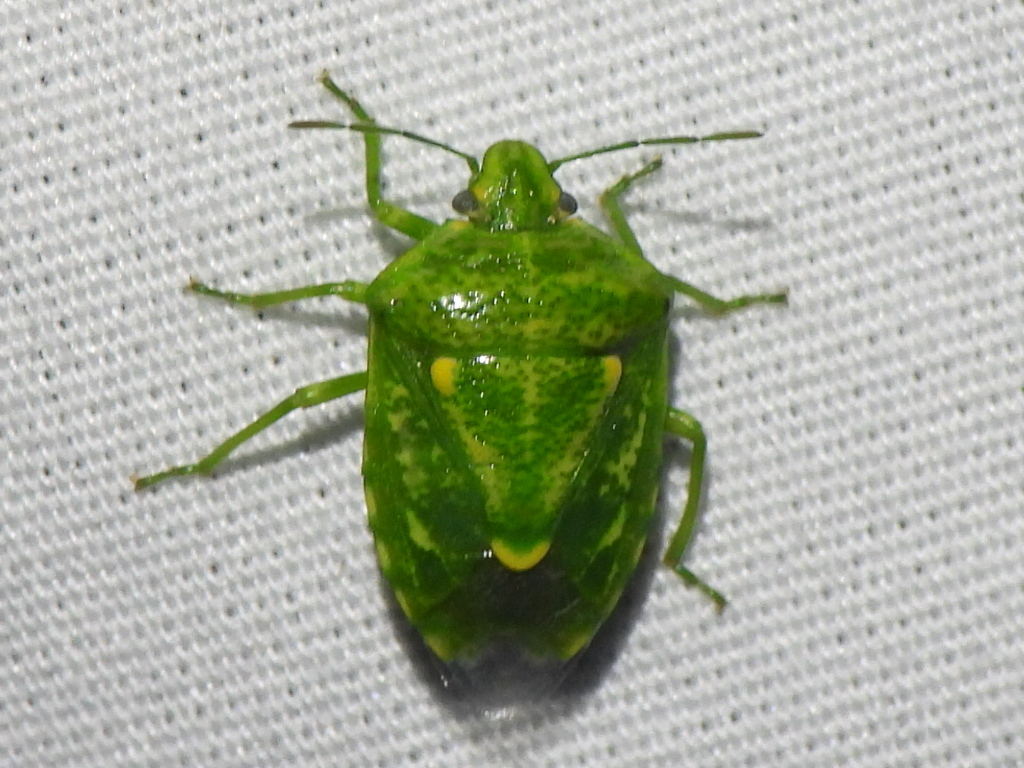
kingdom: Animalia
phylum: Arthropoda
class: Insecta
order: Hemiptera
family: Pentatomidae
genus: Banasa
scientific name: Banasa euchlora
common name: Cedar berry bug
